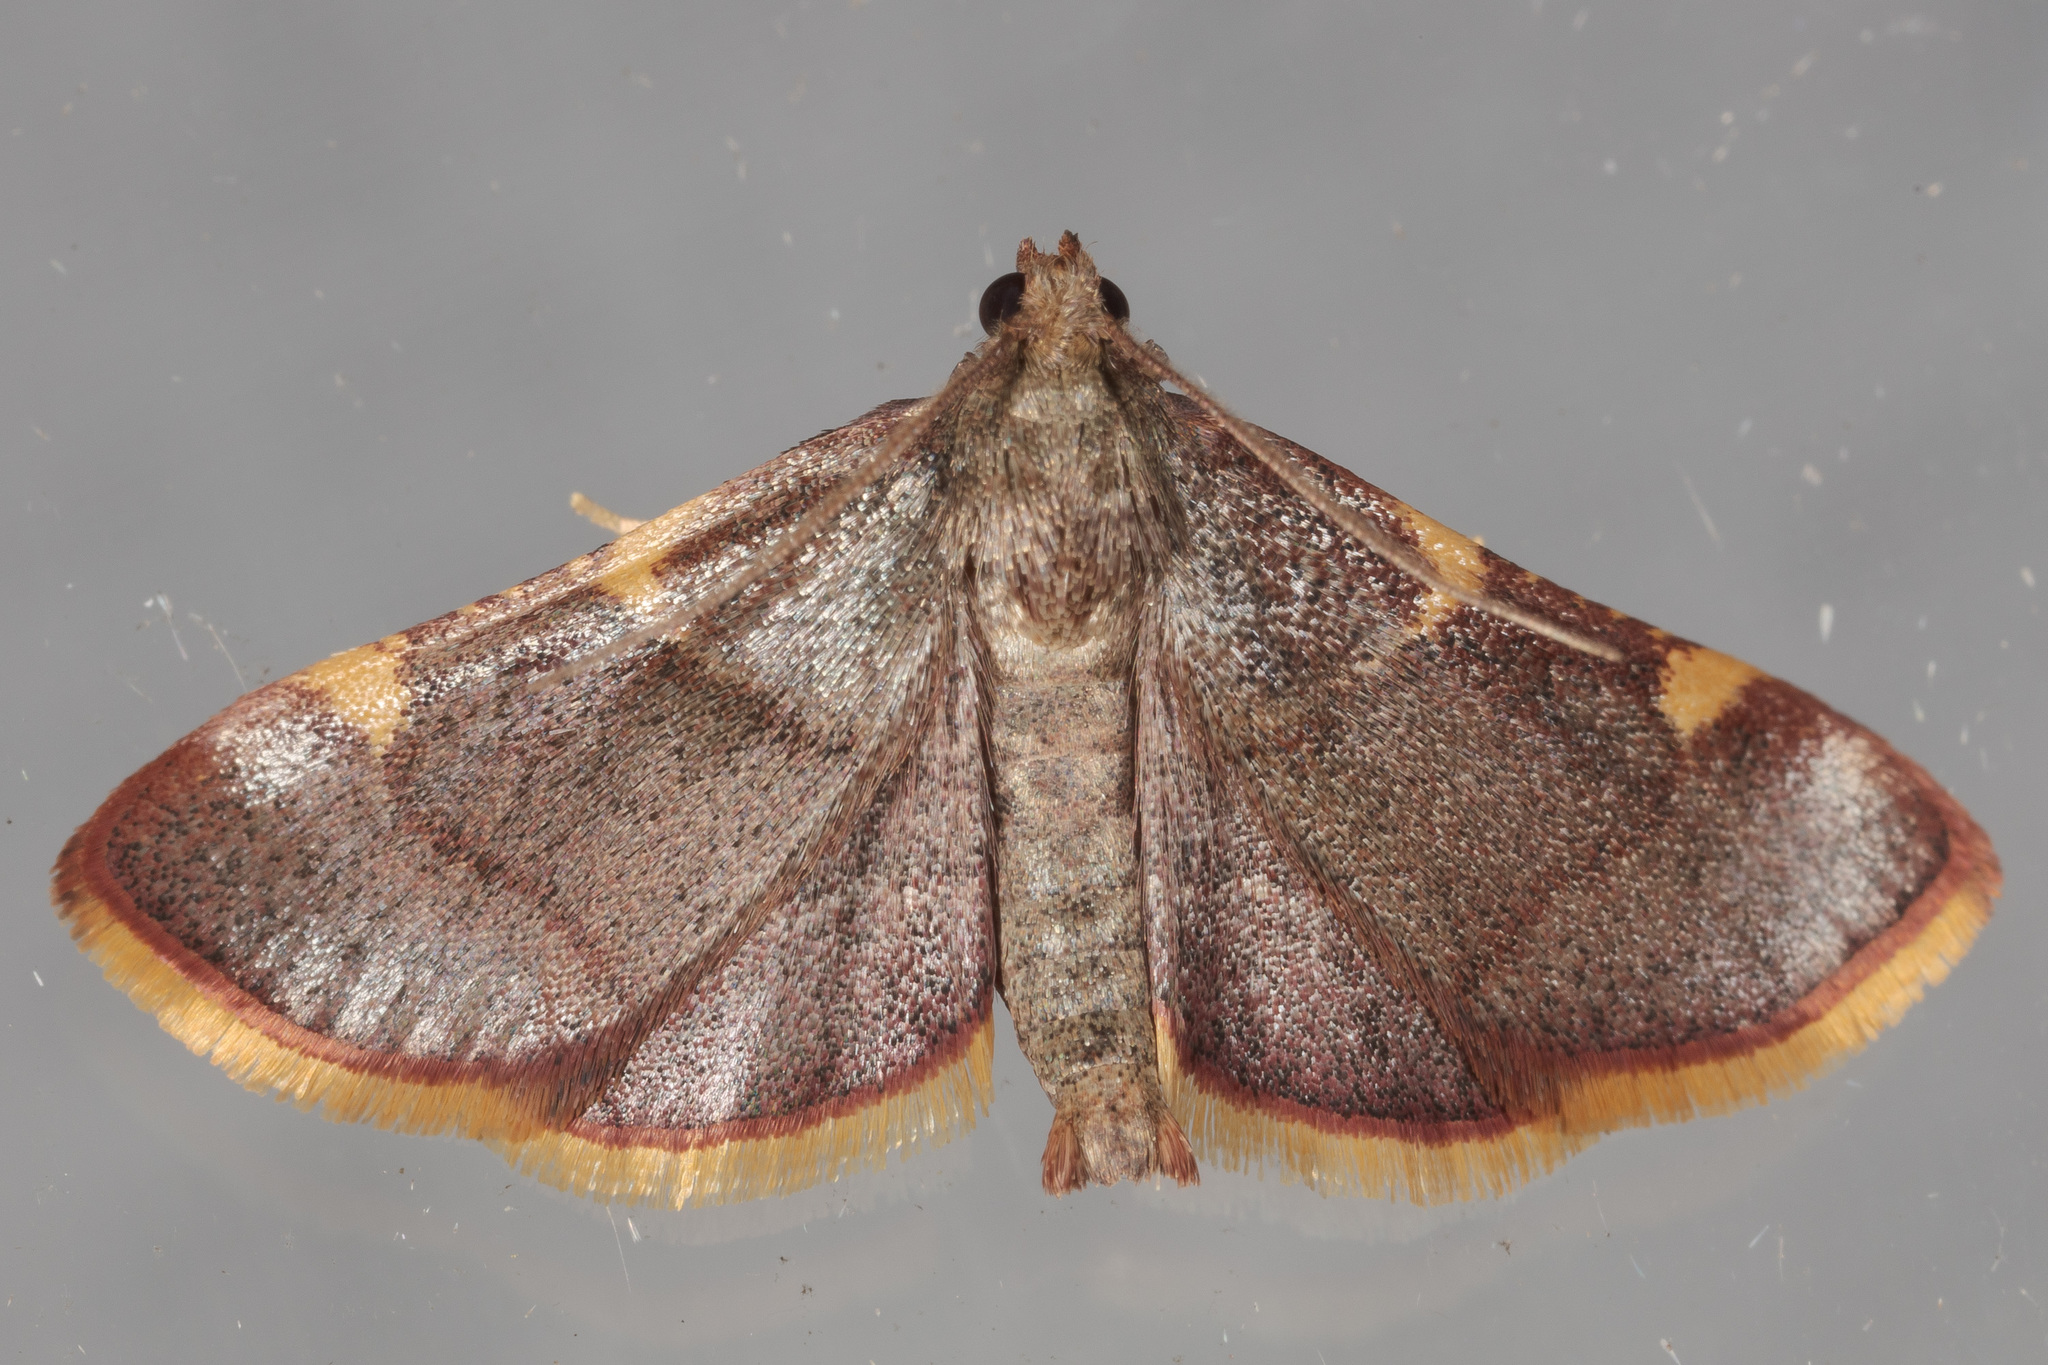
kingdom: Animalia
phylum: Arthropoda
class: Insecta
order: Lepidoptera
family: Pyralidae
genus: Hypsopygia
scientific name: Hypsopygia olinalis
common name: Yellow-fringed dolichomia moth
